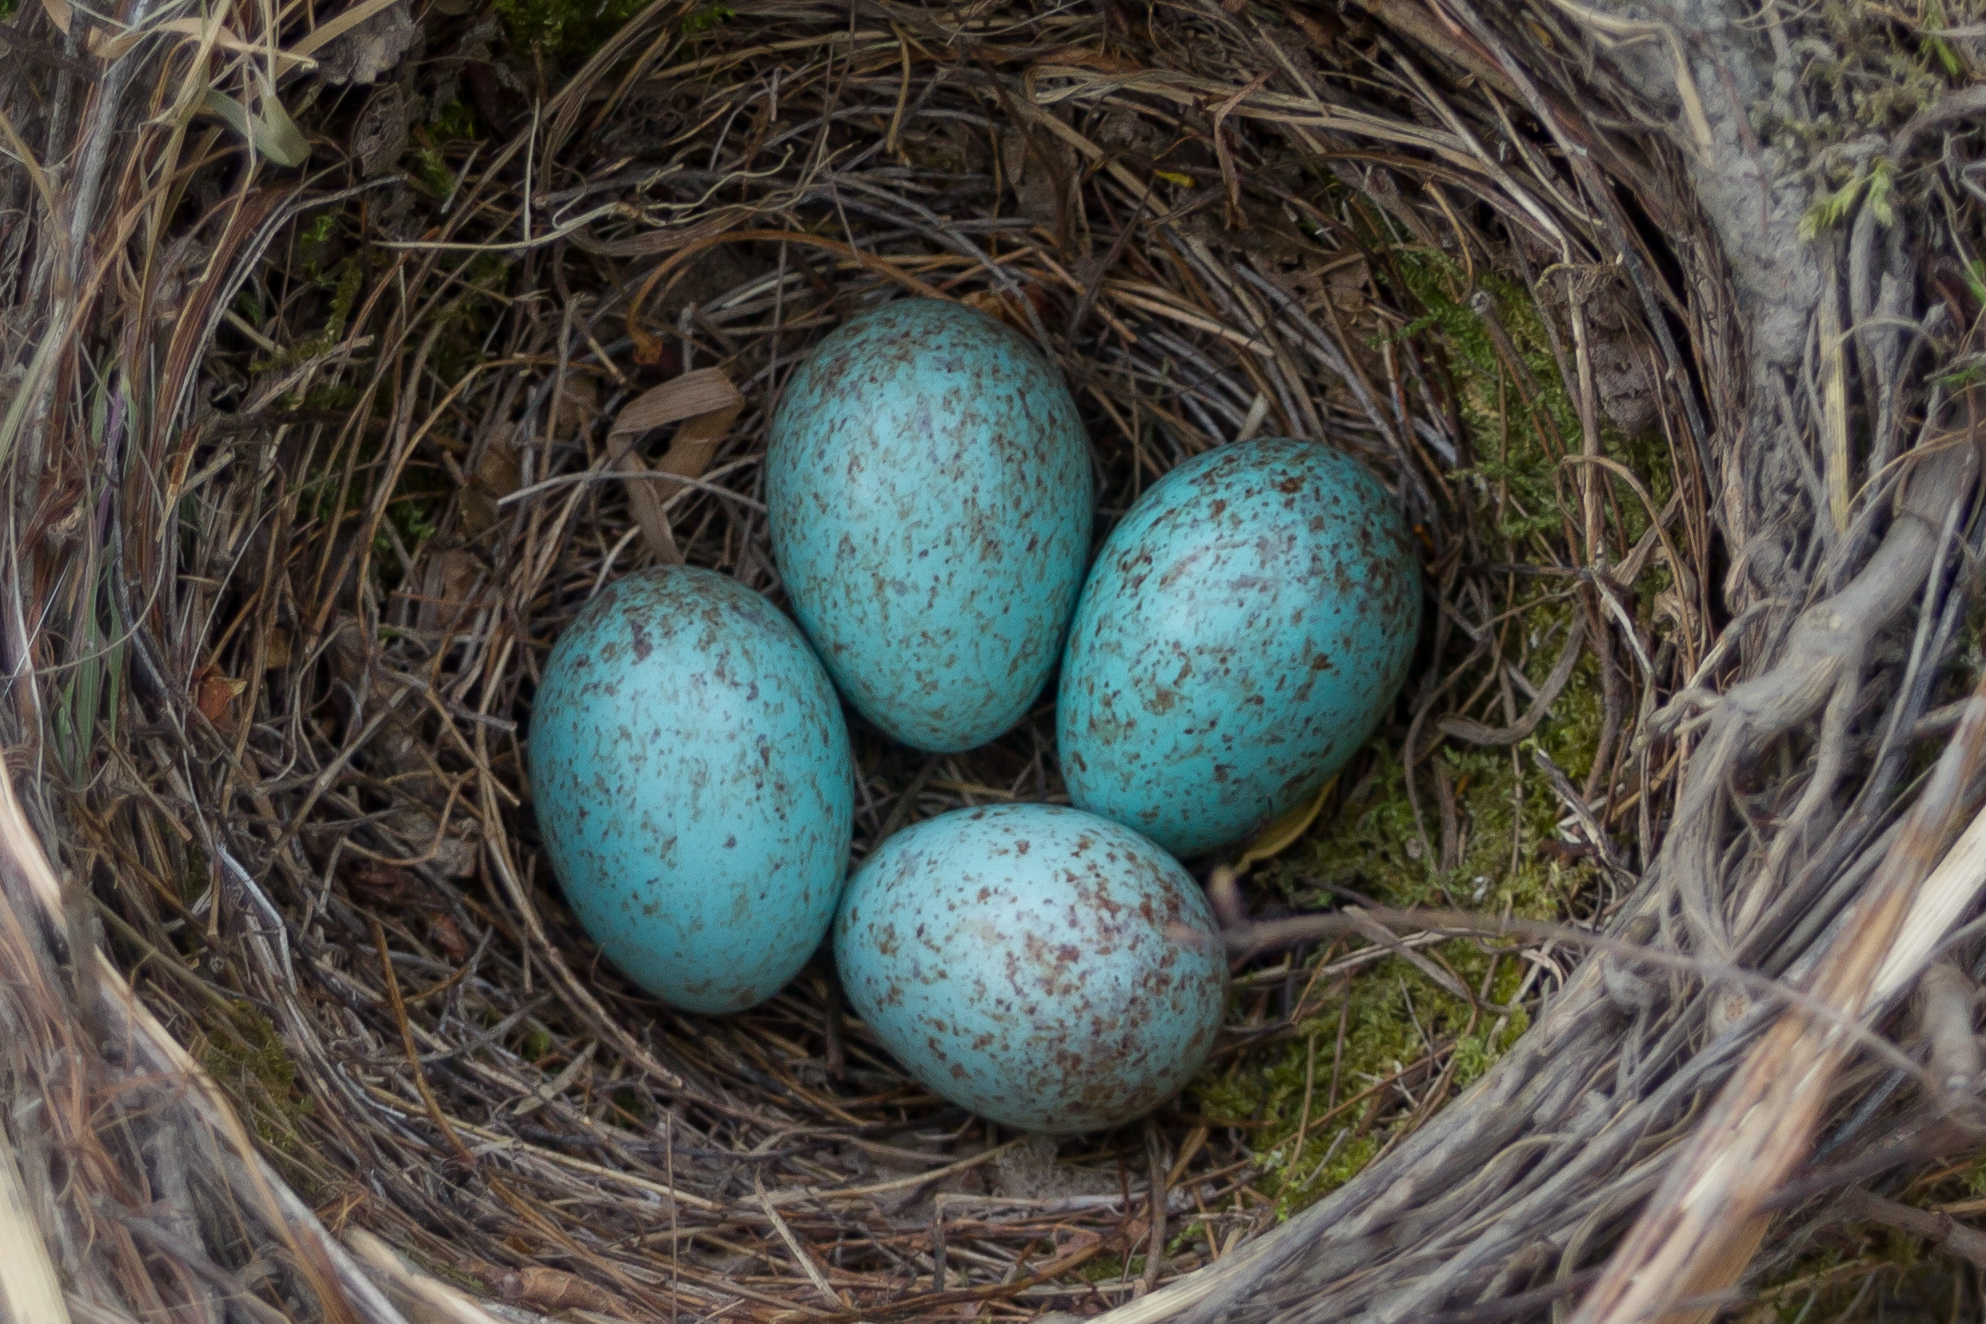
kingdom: Animalia
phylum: Chordata
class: Aves
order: Passeriformes
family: Turdidae
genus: Turdus
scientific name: Turdus merula
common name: Common blackbird
